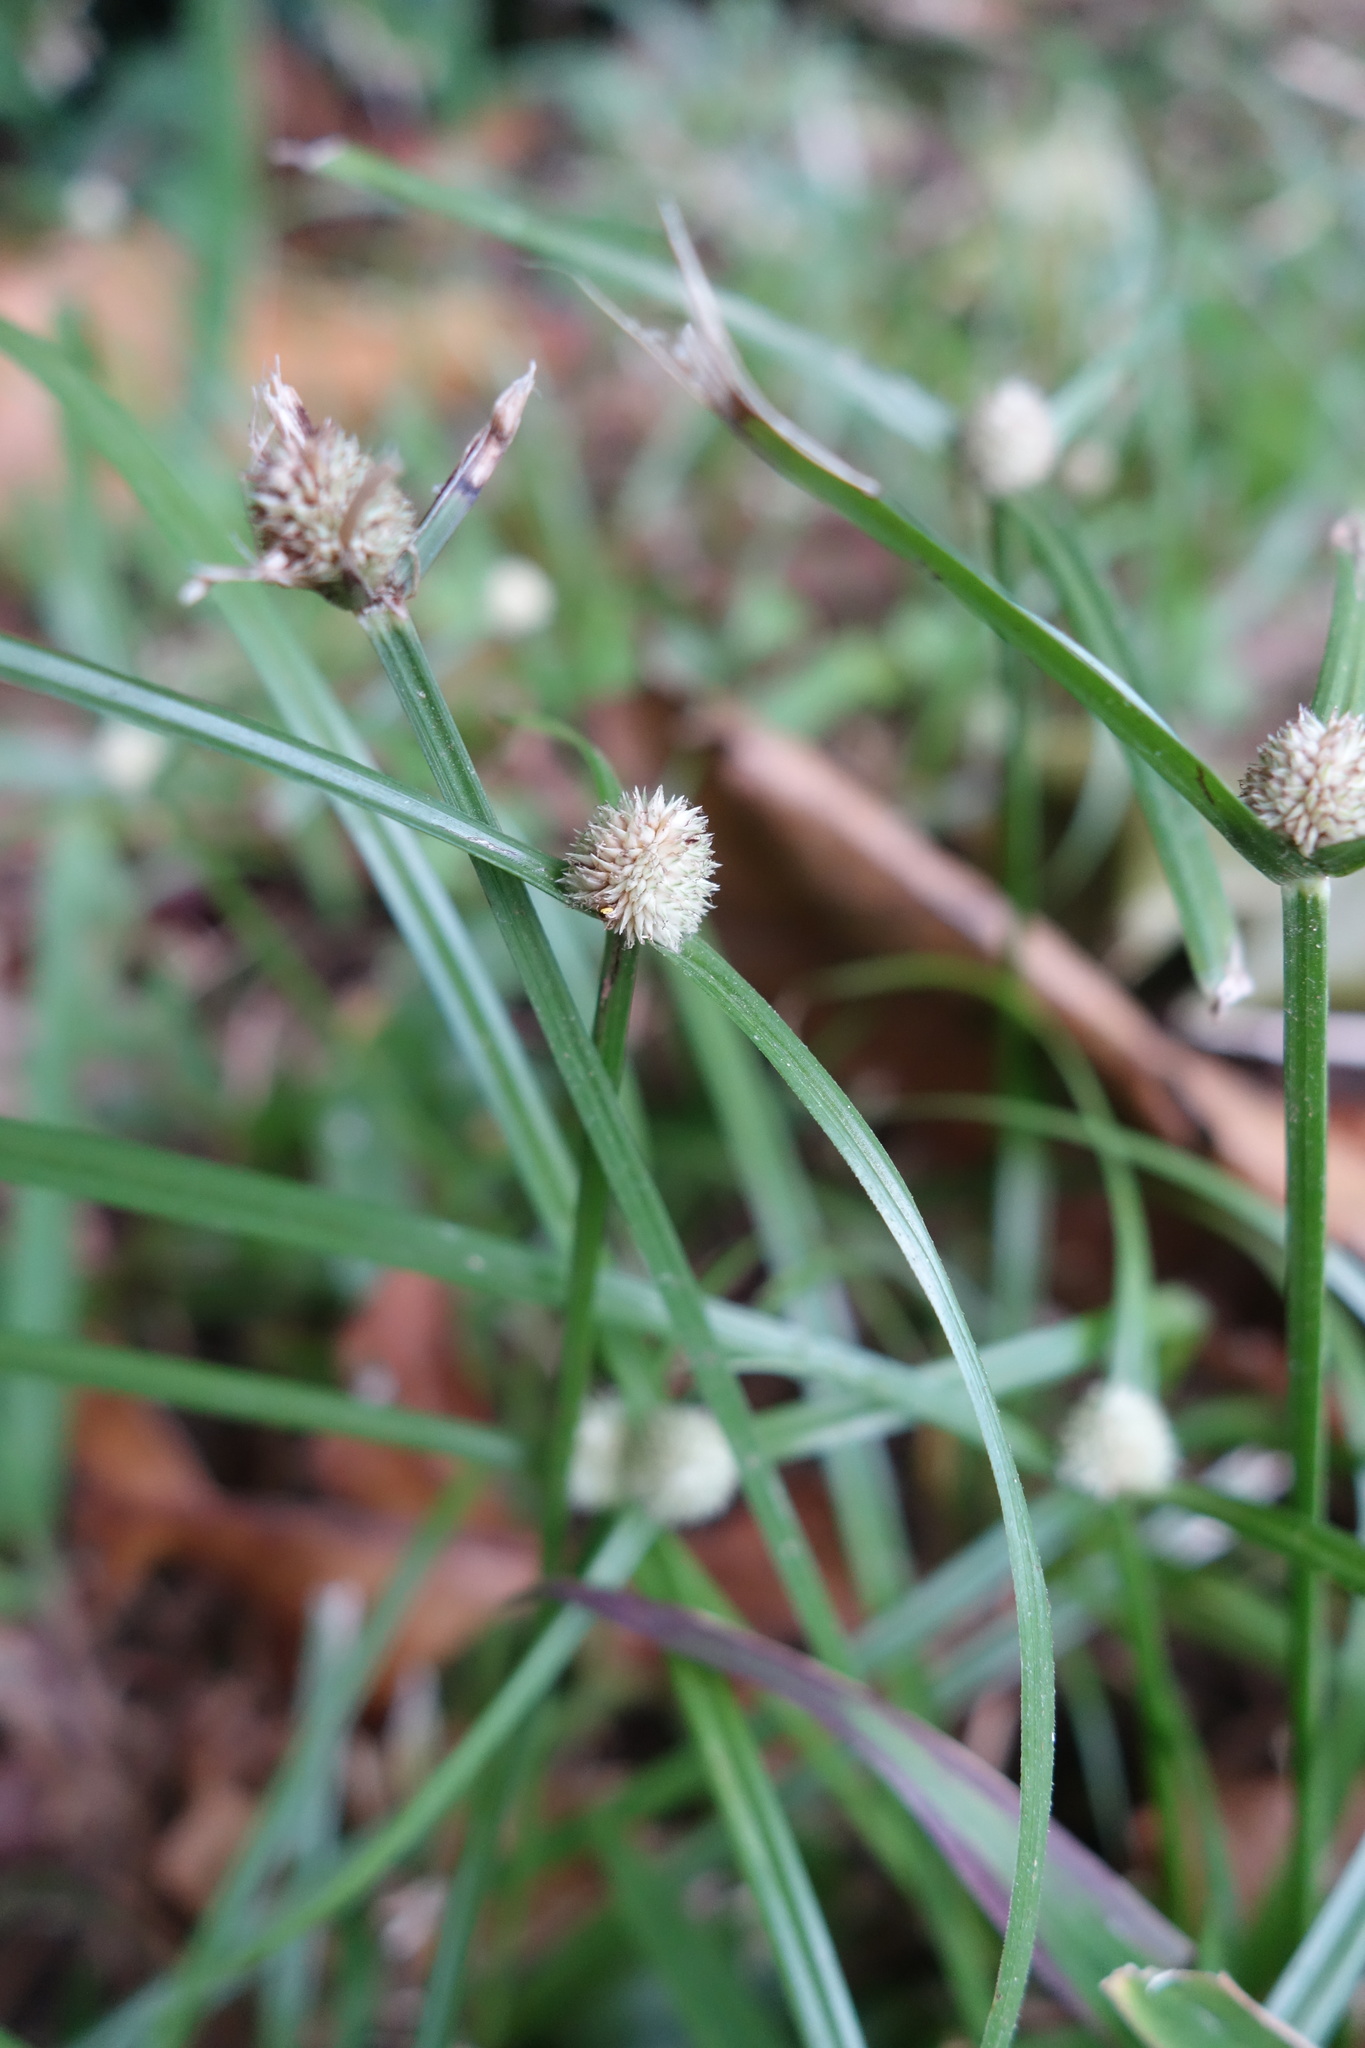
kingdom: Plantae
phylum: Tracheophyta
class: Liliopsida
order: Poales
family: Cyperaceae
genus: Cyperus
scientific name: Cyperus mindorensis
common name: Flatsedge
